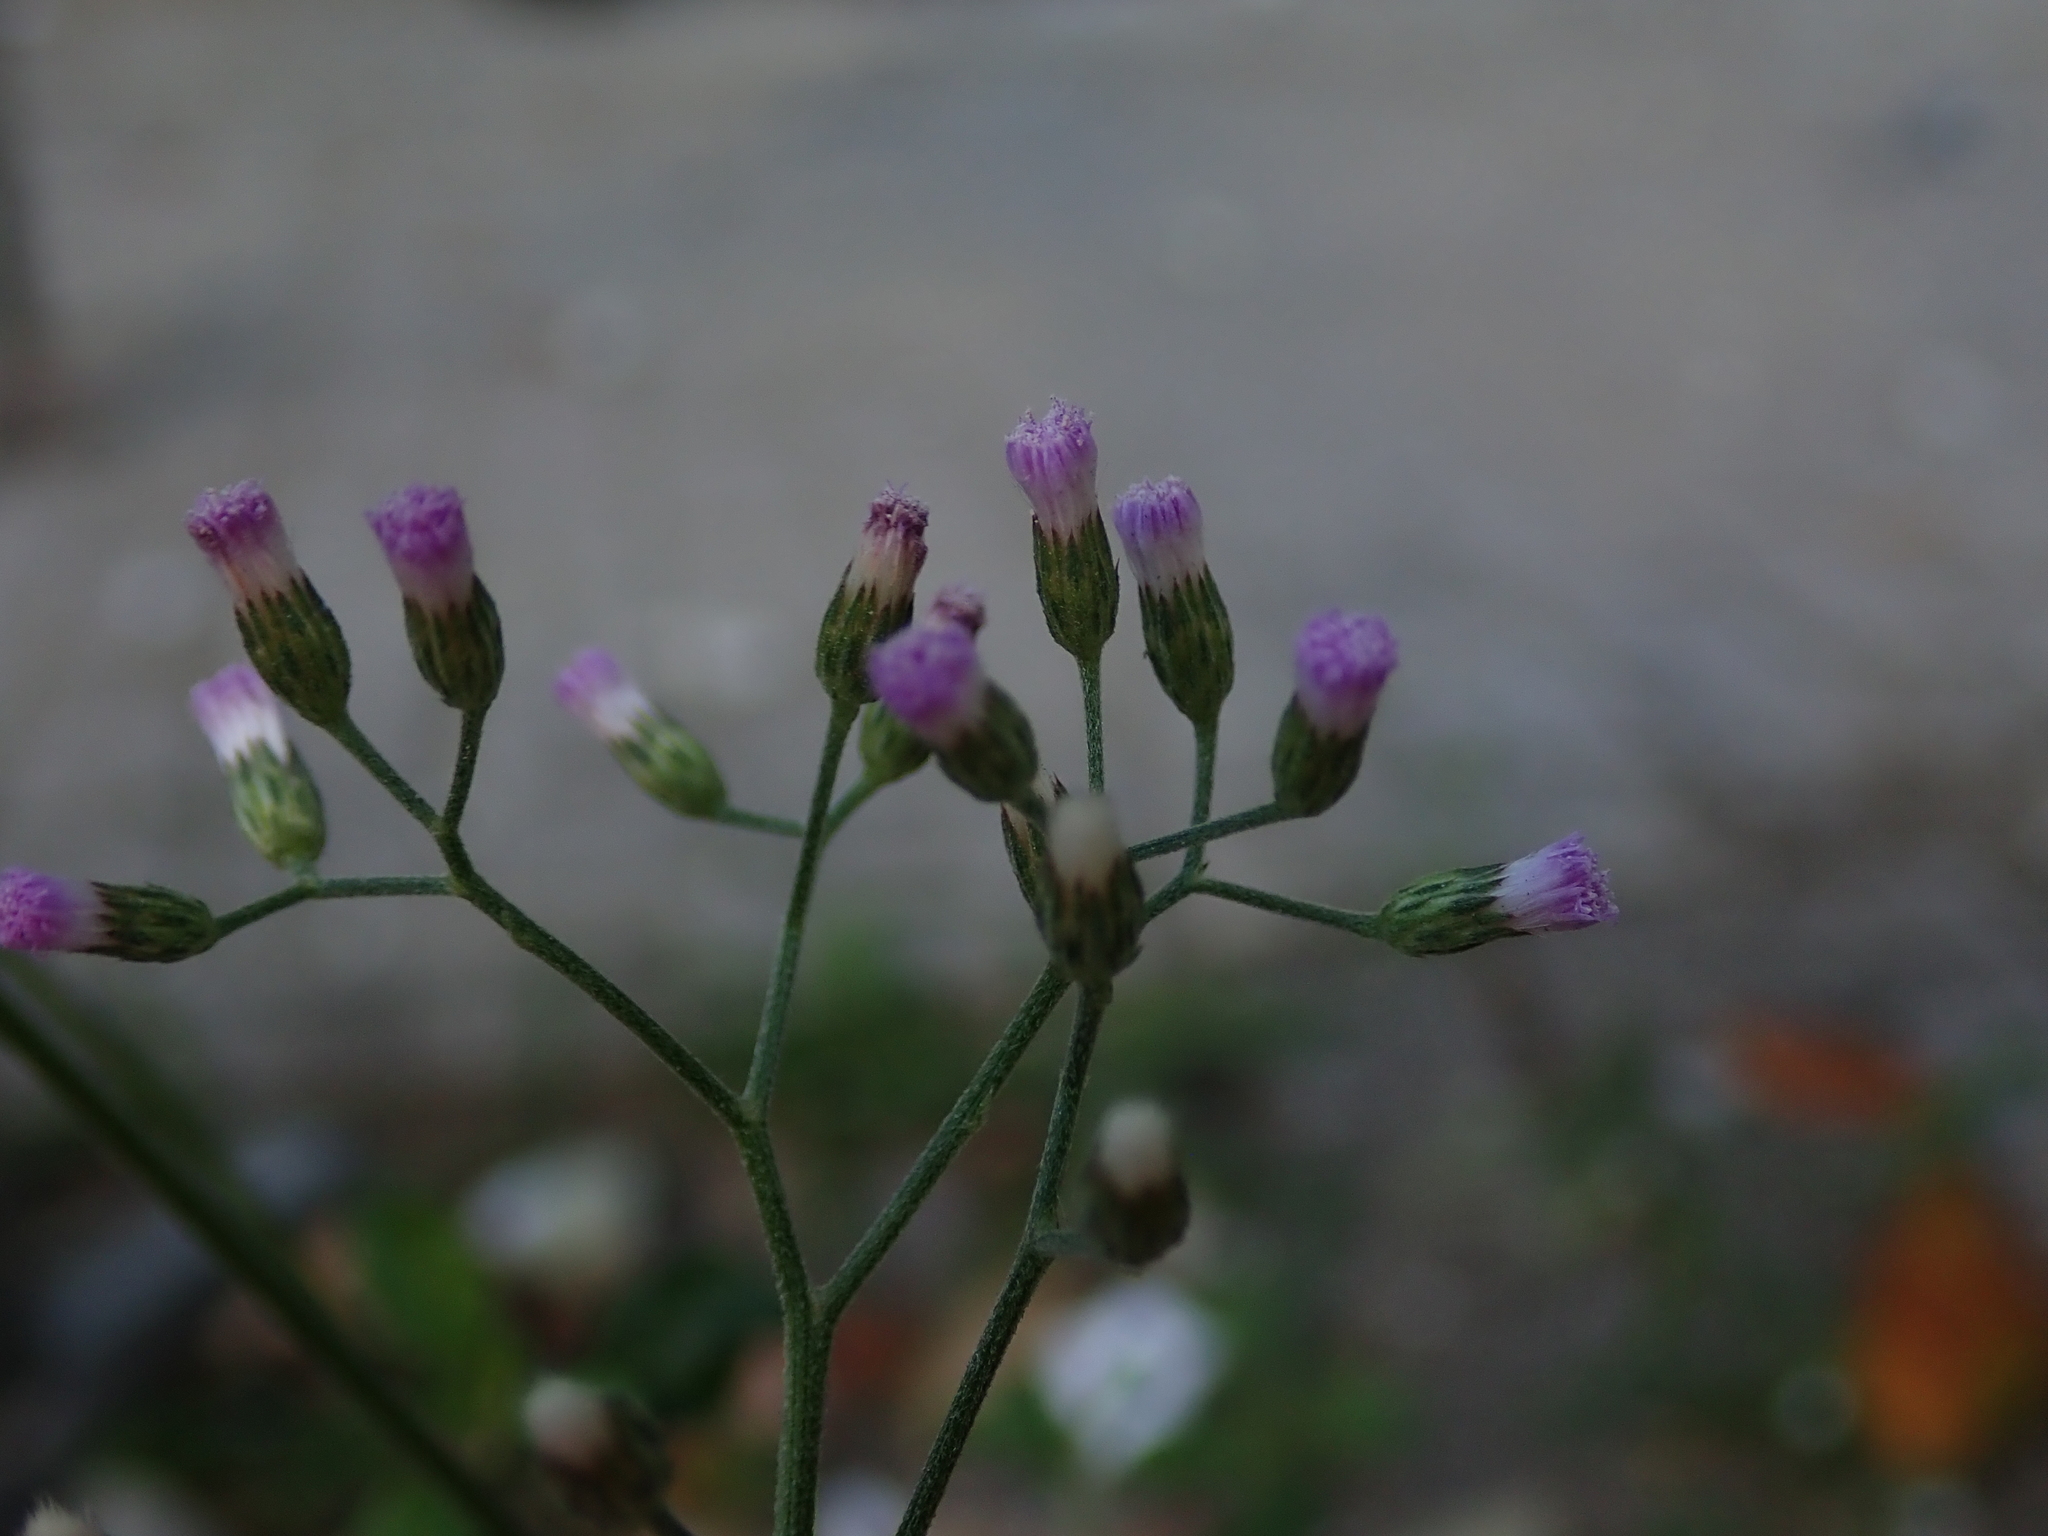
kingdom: Plantae
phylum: Tracheophyta
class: Magnoliopsida
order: Asterales
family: Asteraceae
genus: Cyanthillium
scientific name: Cyanthillium cinereum
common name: Little ironweed
